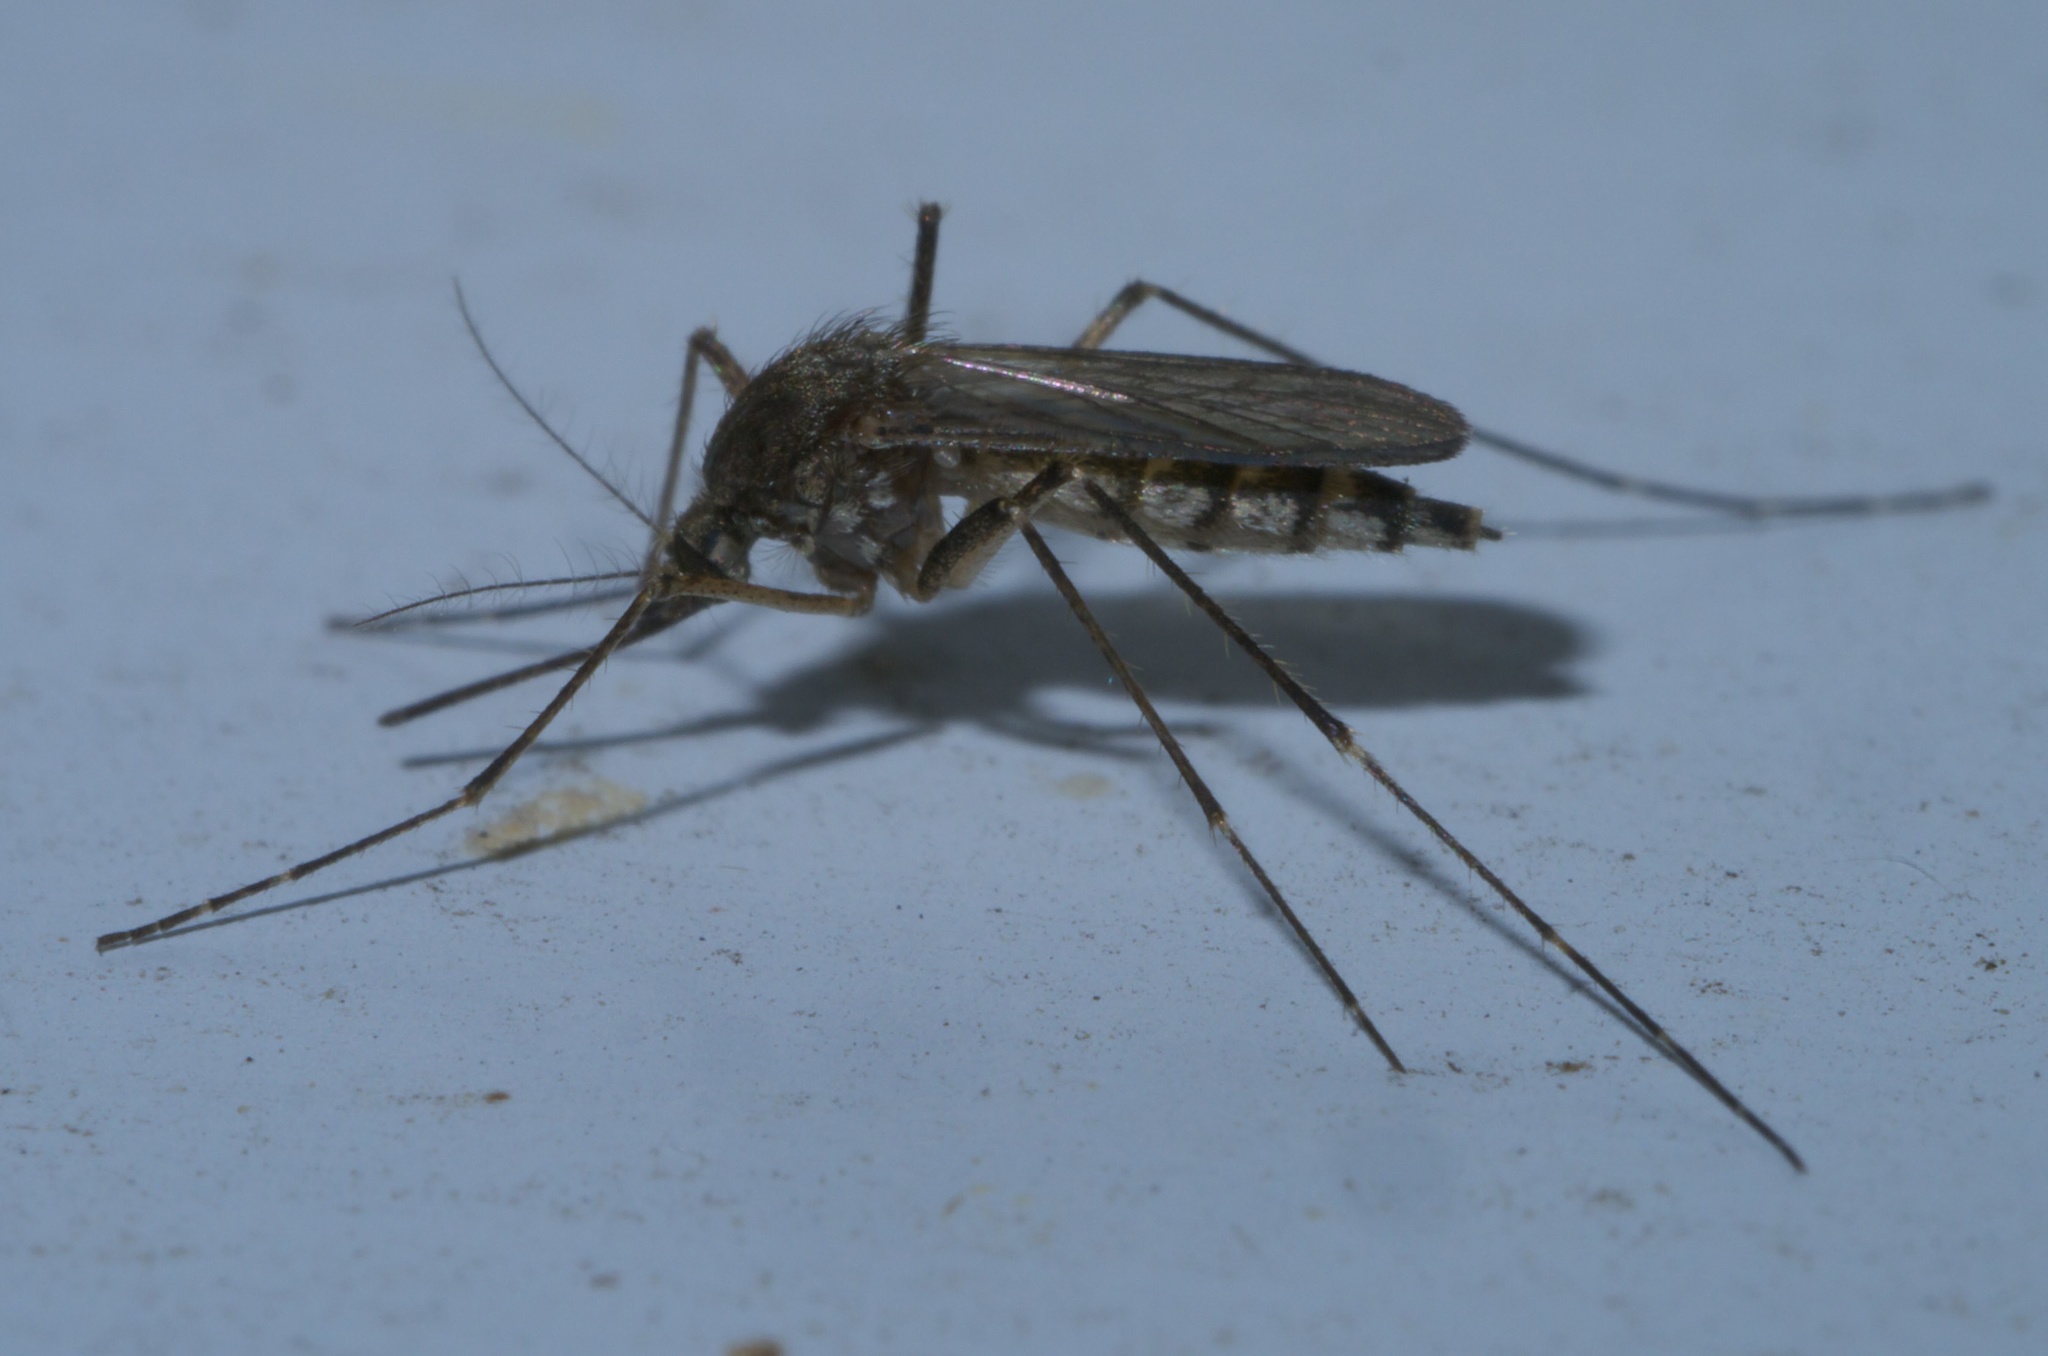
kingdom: Animalia
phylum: Arthropoda
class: Insecta
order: Diptera
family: Culicidae
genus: Aedes
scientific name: Aedes vexans
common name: Inland floodwater mosquito
